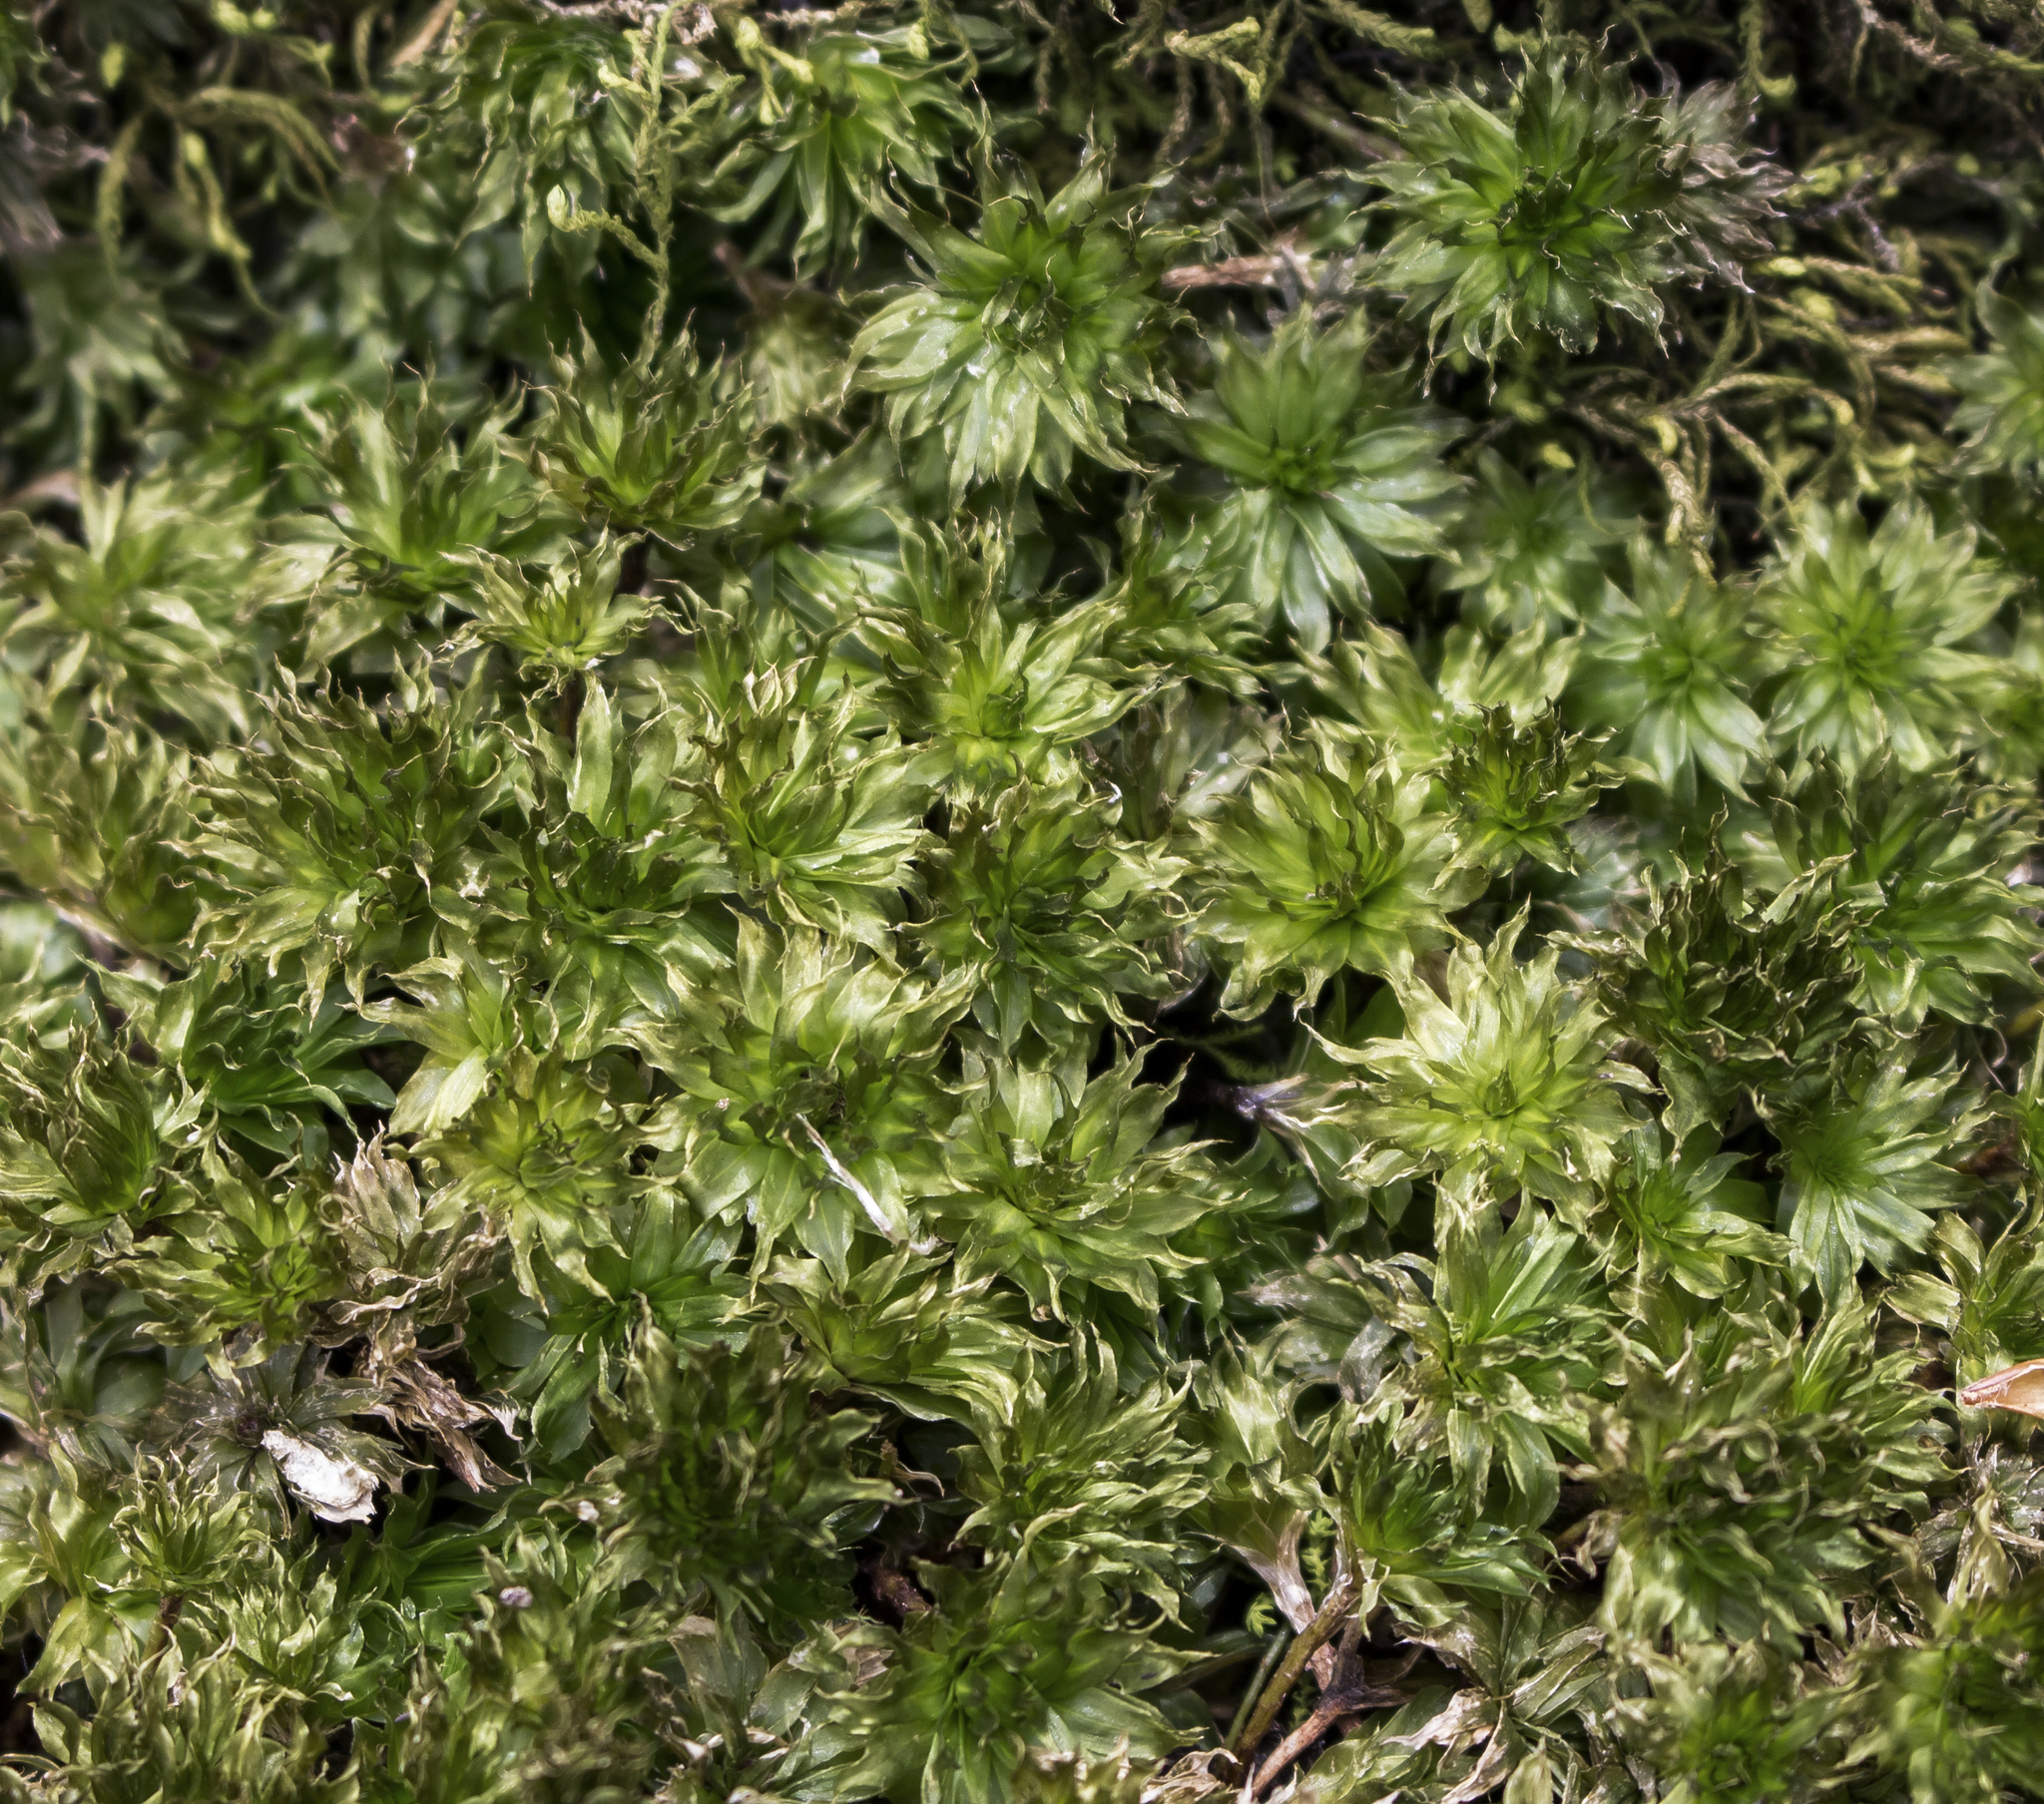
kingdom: Plantae
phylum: Bryophyta
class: Bryopsida
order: Bryales
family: Bryaceae
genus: Rhodobryum
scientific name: Rhodobryum ontariense
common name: Ontario rhodobryum moss
